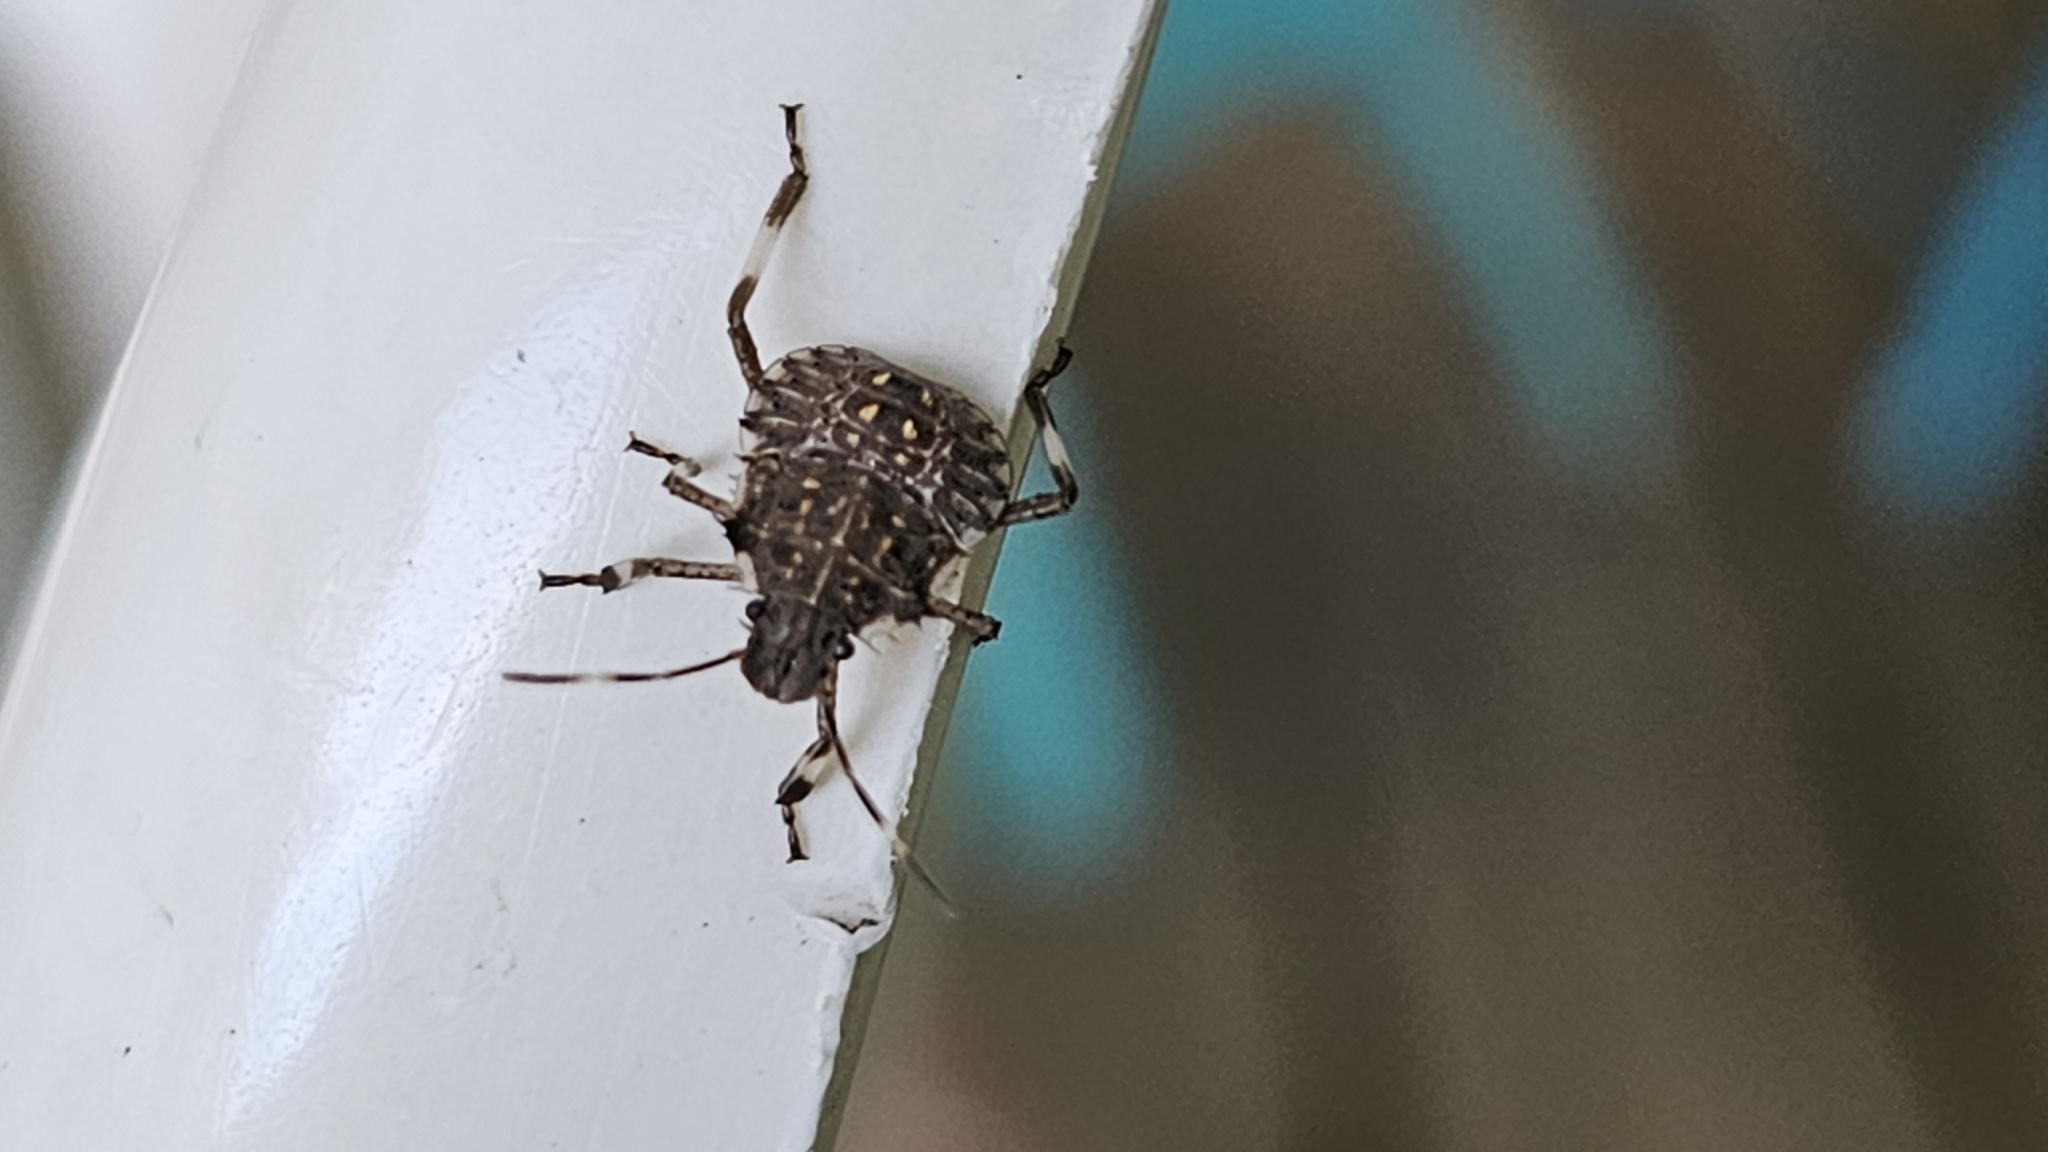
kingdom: Animalia
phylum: Arthropoda
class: Insecta
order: Hemiptera
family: Pentatomidae
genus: Halyomorpha
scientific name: Halyomorpha halys
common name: Brown marmorated stink bug
